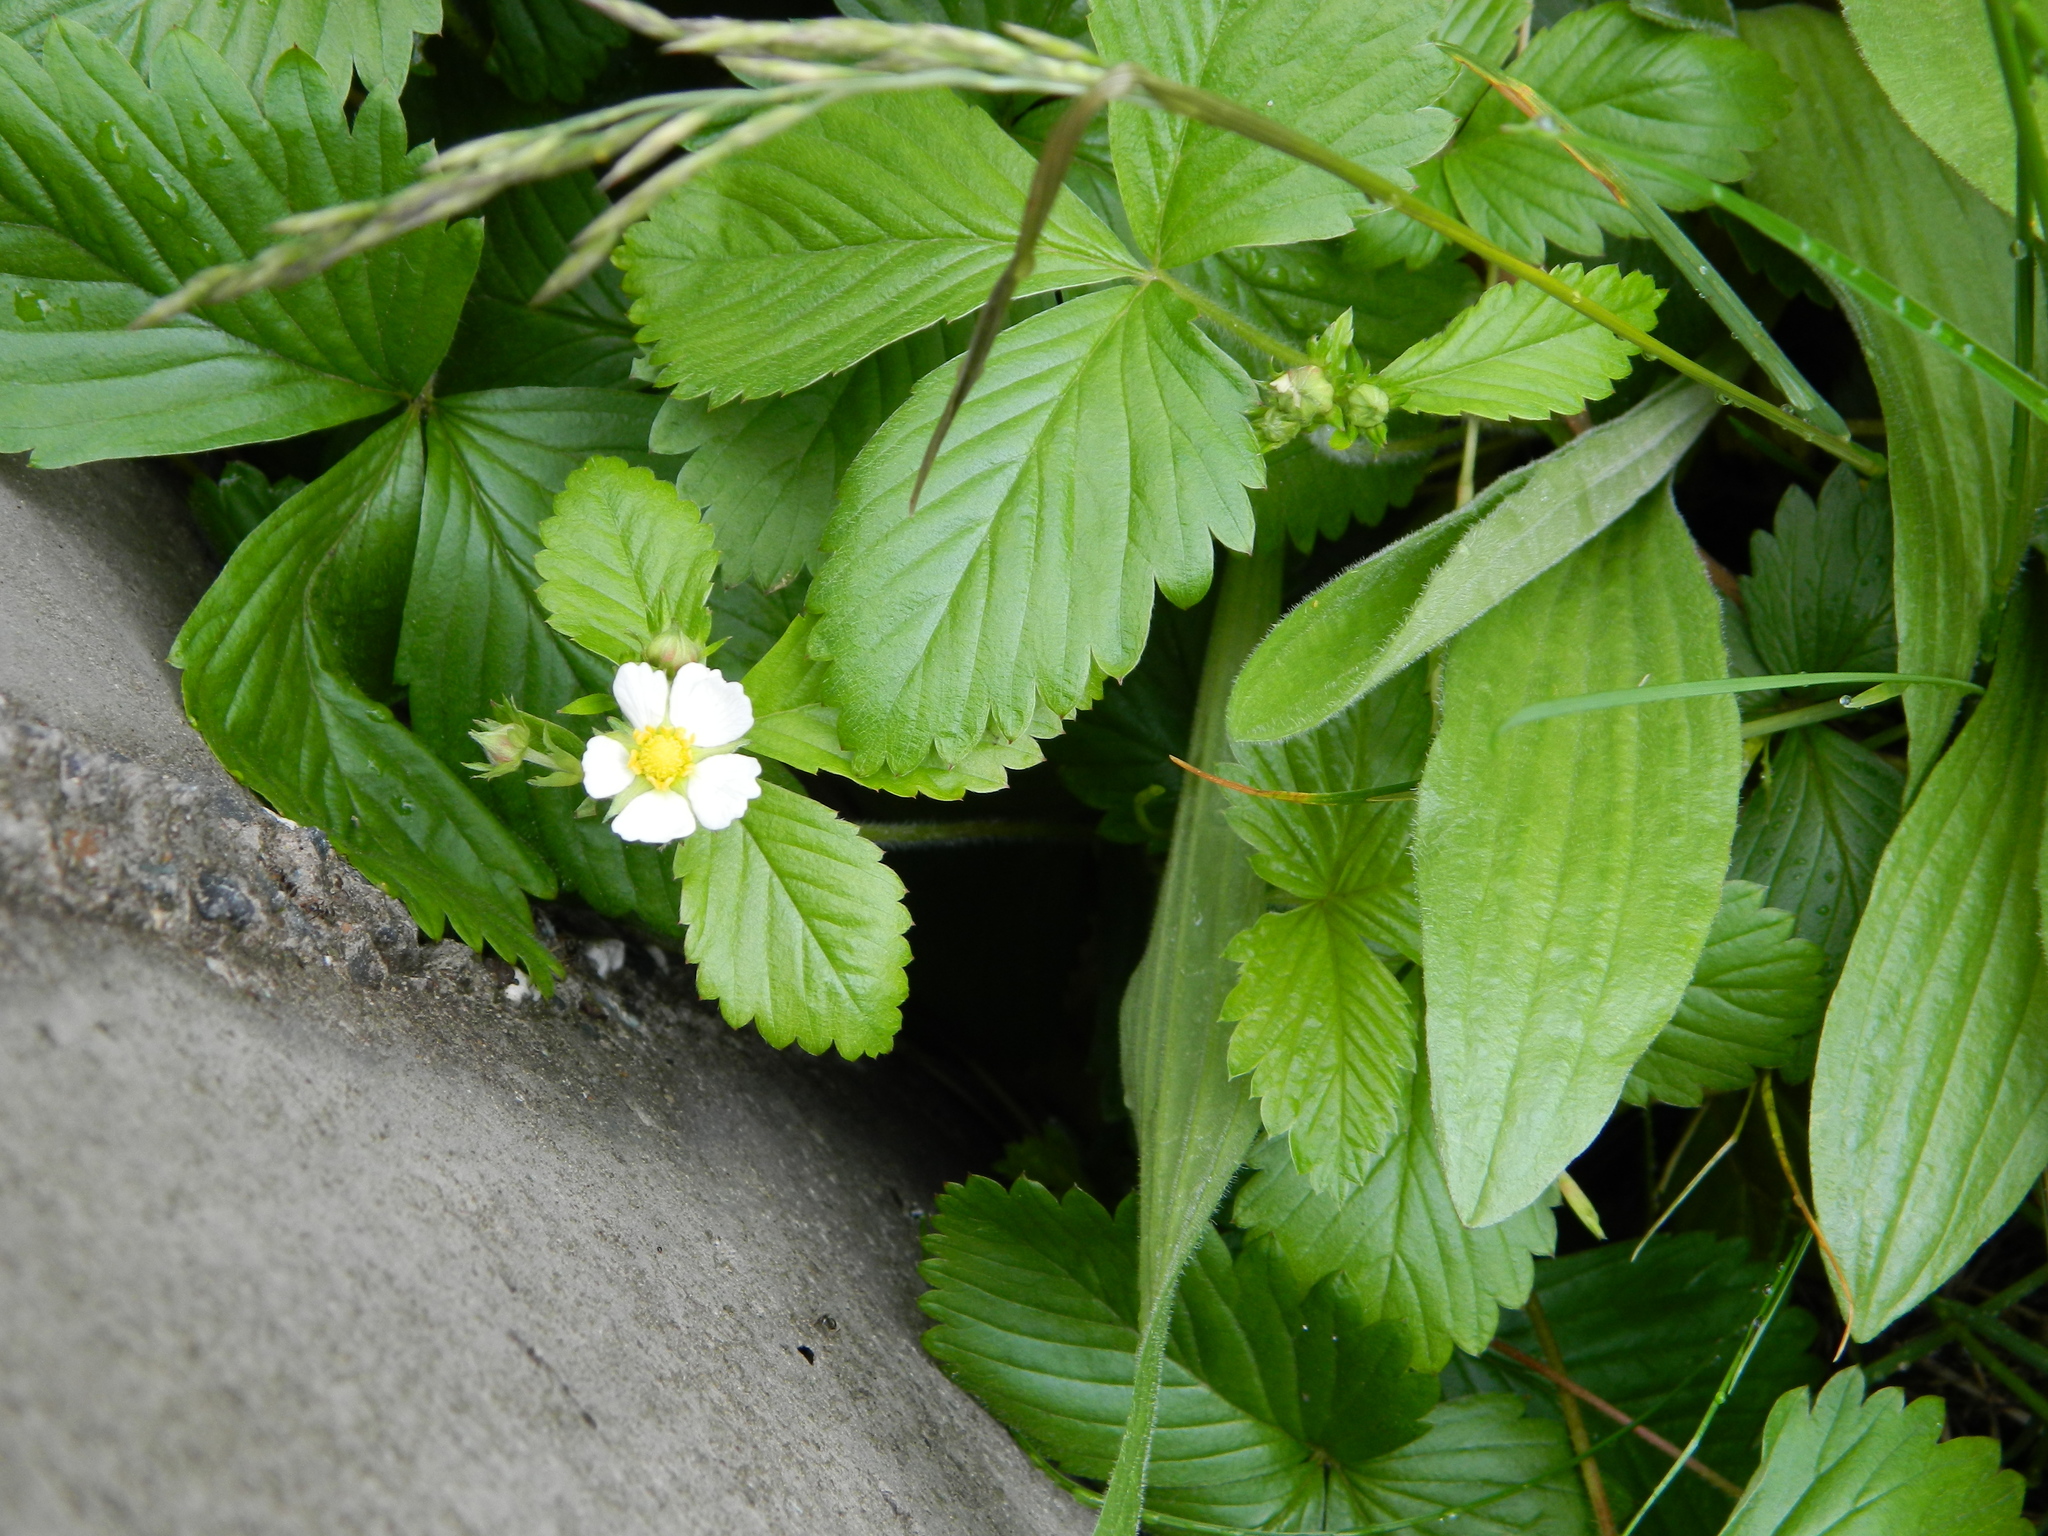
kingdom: Plantae
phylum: Tracheophyta
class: Magnoliopsida
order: Rosales
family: Rosaceae
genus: Fragaria
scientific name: Fragaria vesca
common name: Wild strawberry
